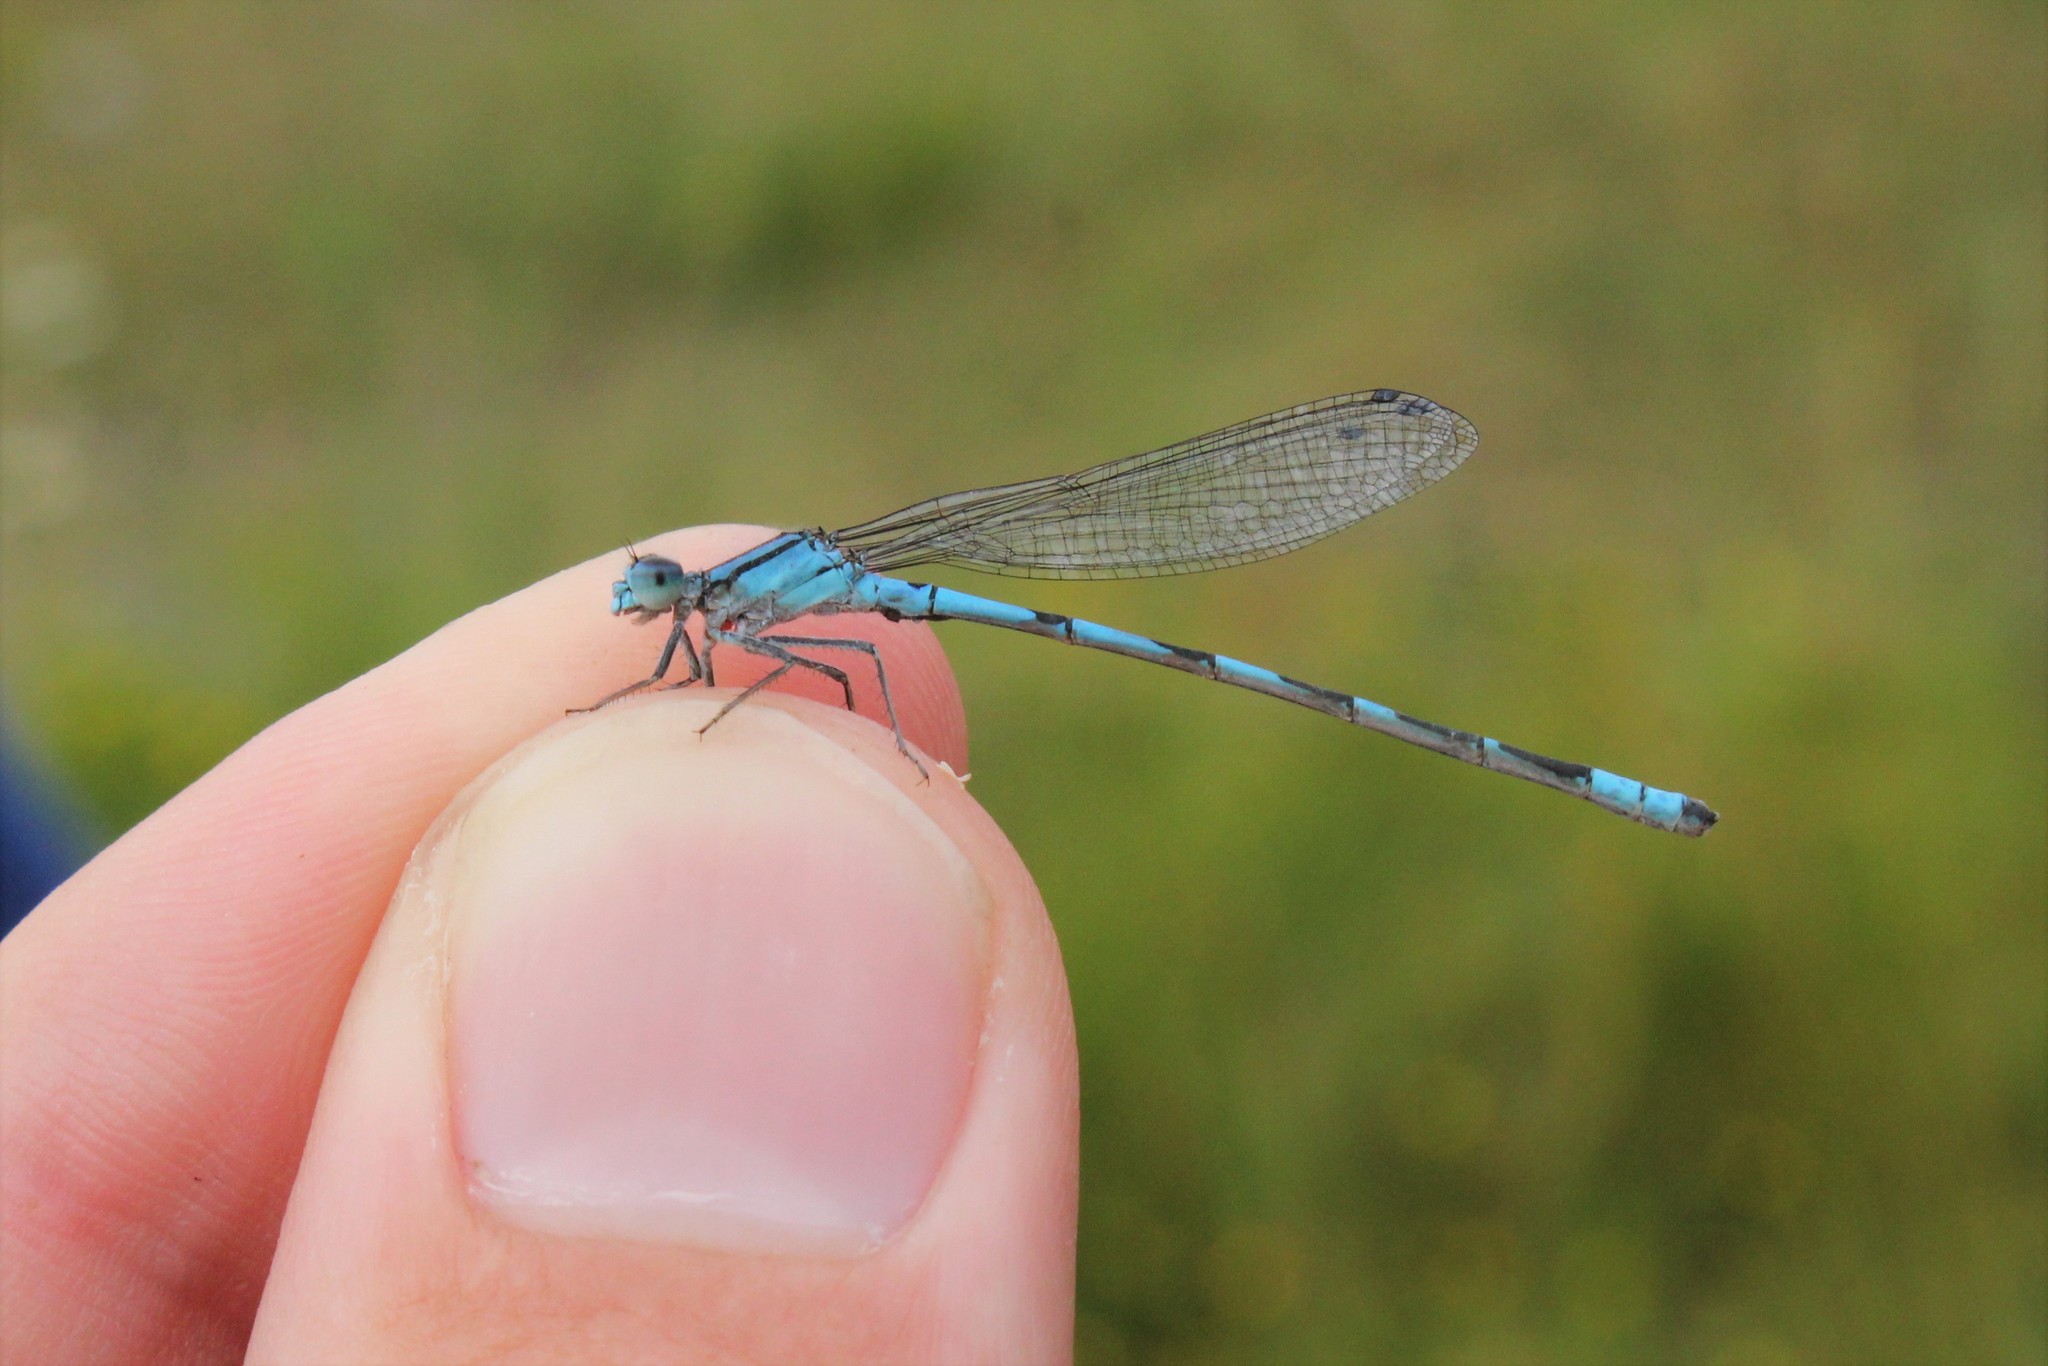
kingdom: Animalia
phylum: Arthropoda
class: Insecta
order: Odonata
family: Coenagrionidae
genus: Enallagma
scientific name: Enallagma carunculatum
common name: Tule bluet
